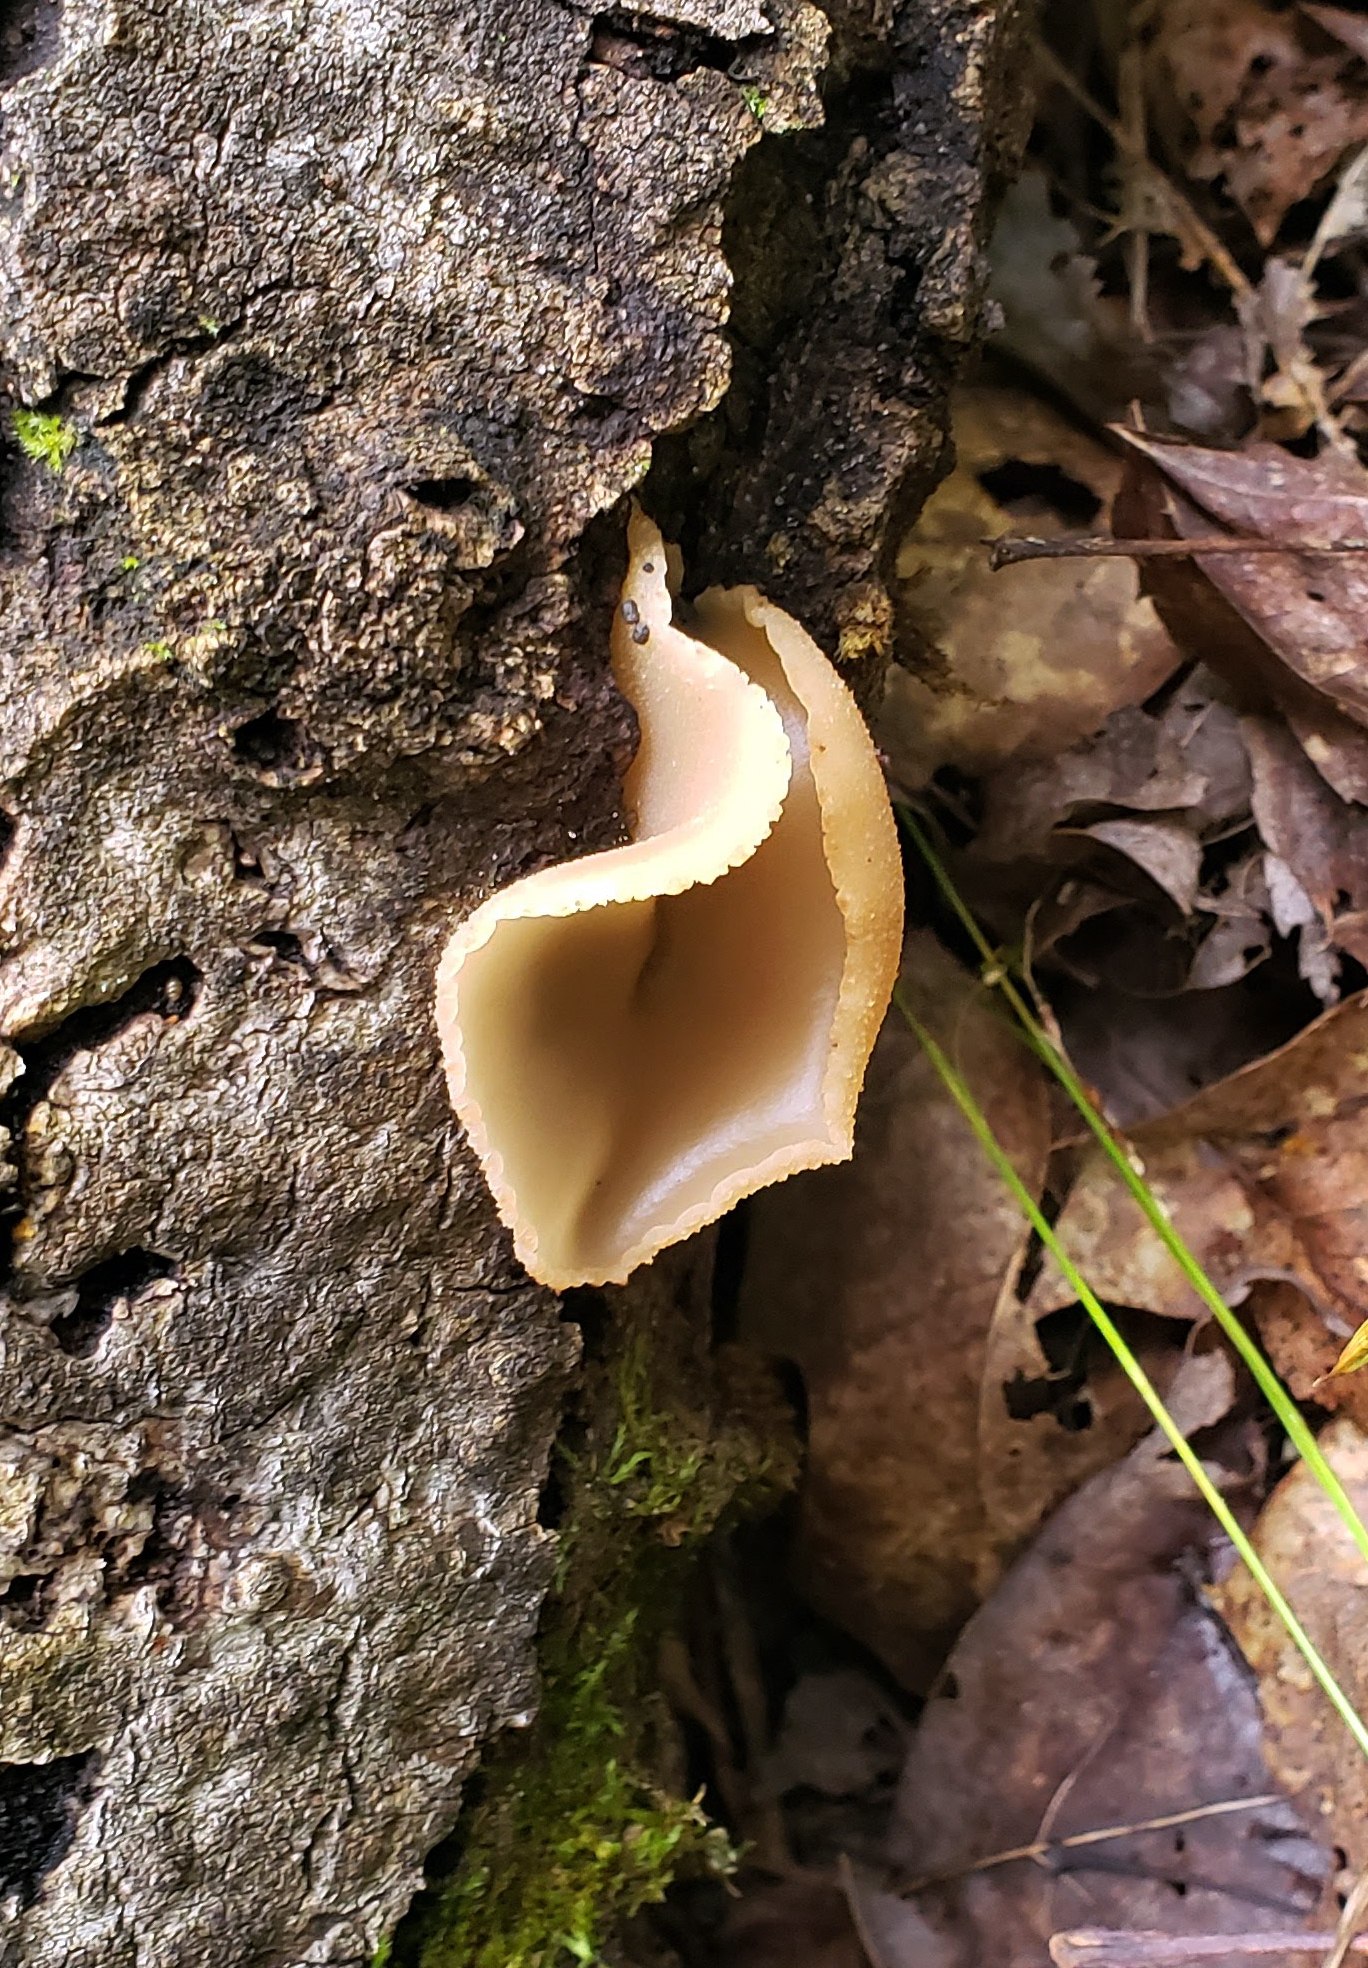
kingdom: Fungi
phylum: Ascomycota
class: Pezizomycetes
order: Pezizales
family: Pezizaceae
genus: Peziza
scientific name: Peziza varia
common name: Layered cup
